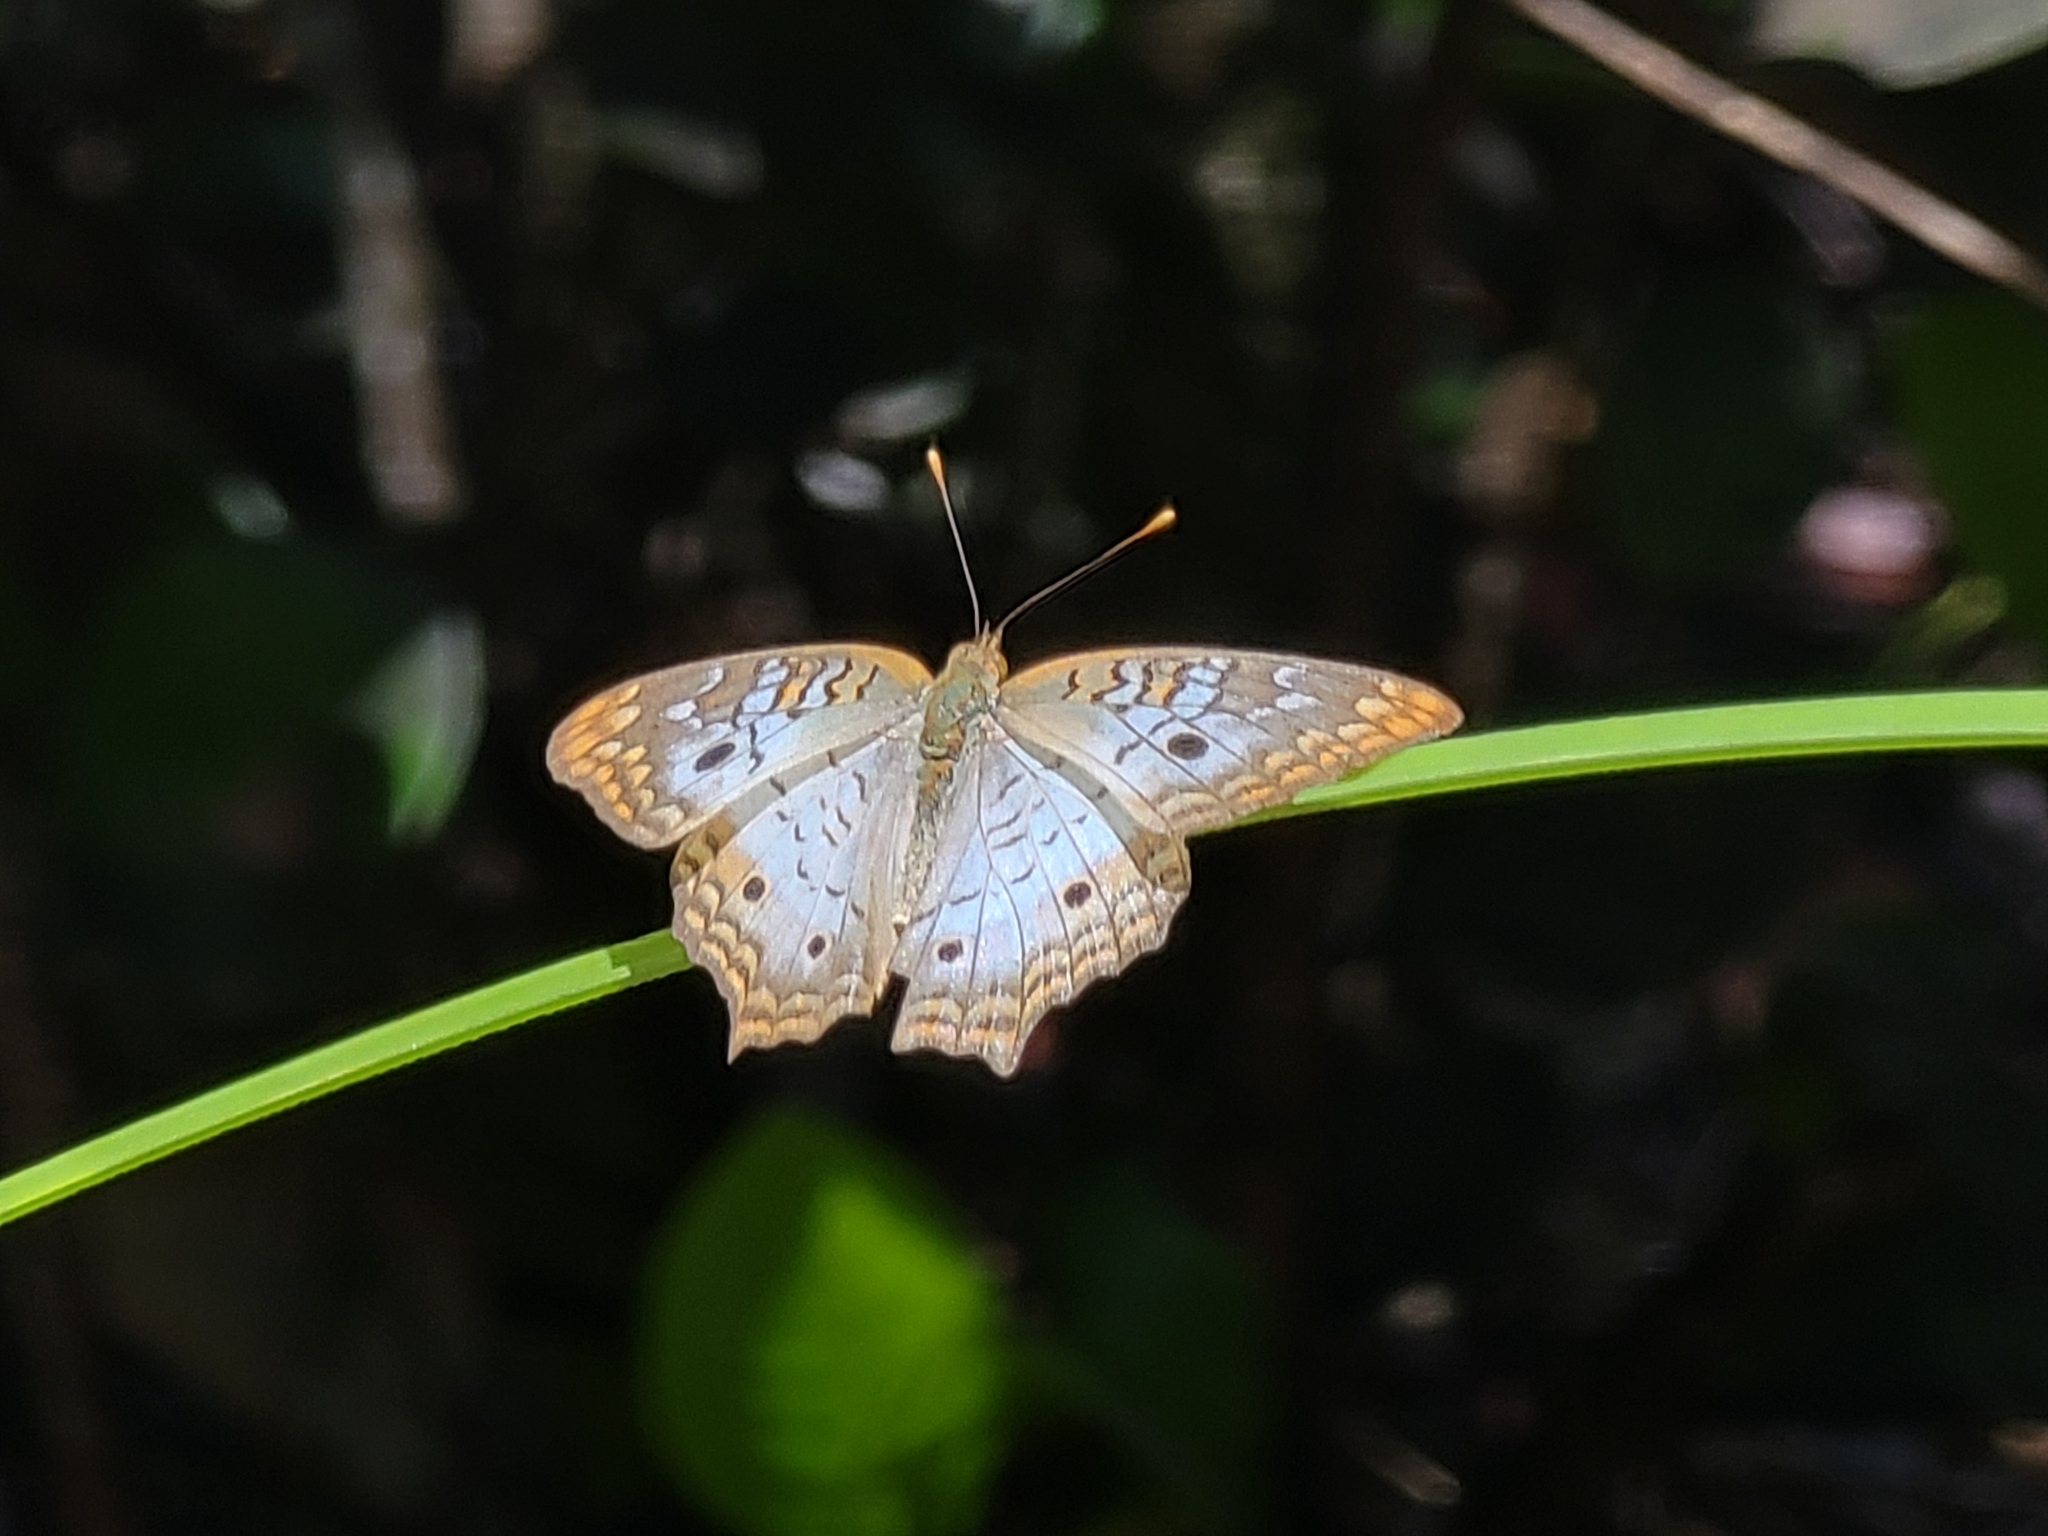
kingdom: Animalia
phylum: Arthropoda
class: Insecta
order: Lepidoptera
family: Nymphalidae
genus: Anartia
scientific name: Anartia jatrophae
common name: White peacock
